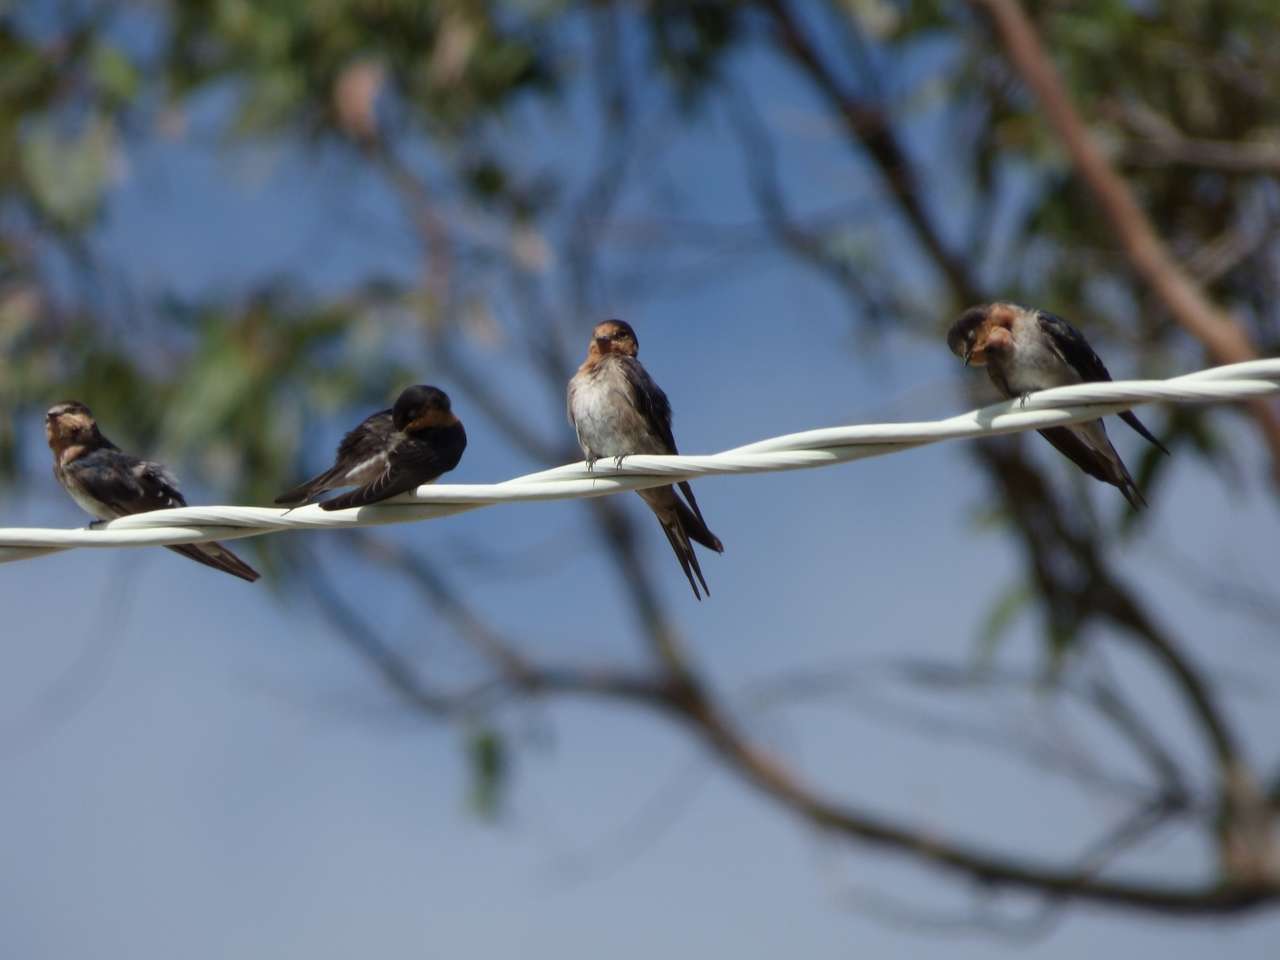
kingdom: Animalia
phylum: Chordata
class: Aves
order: Passeriformes
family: Hirundinidae
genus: Hirundo
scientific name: Hirundo neoxena
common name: Welcome swallow
